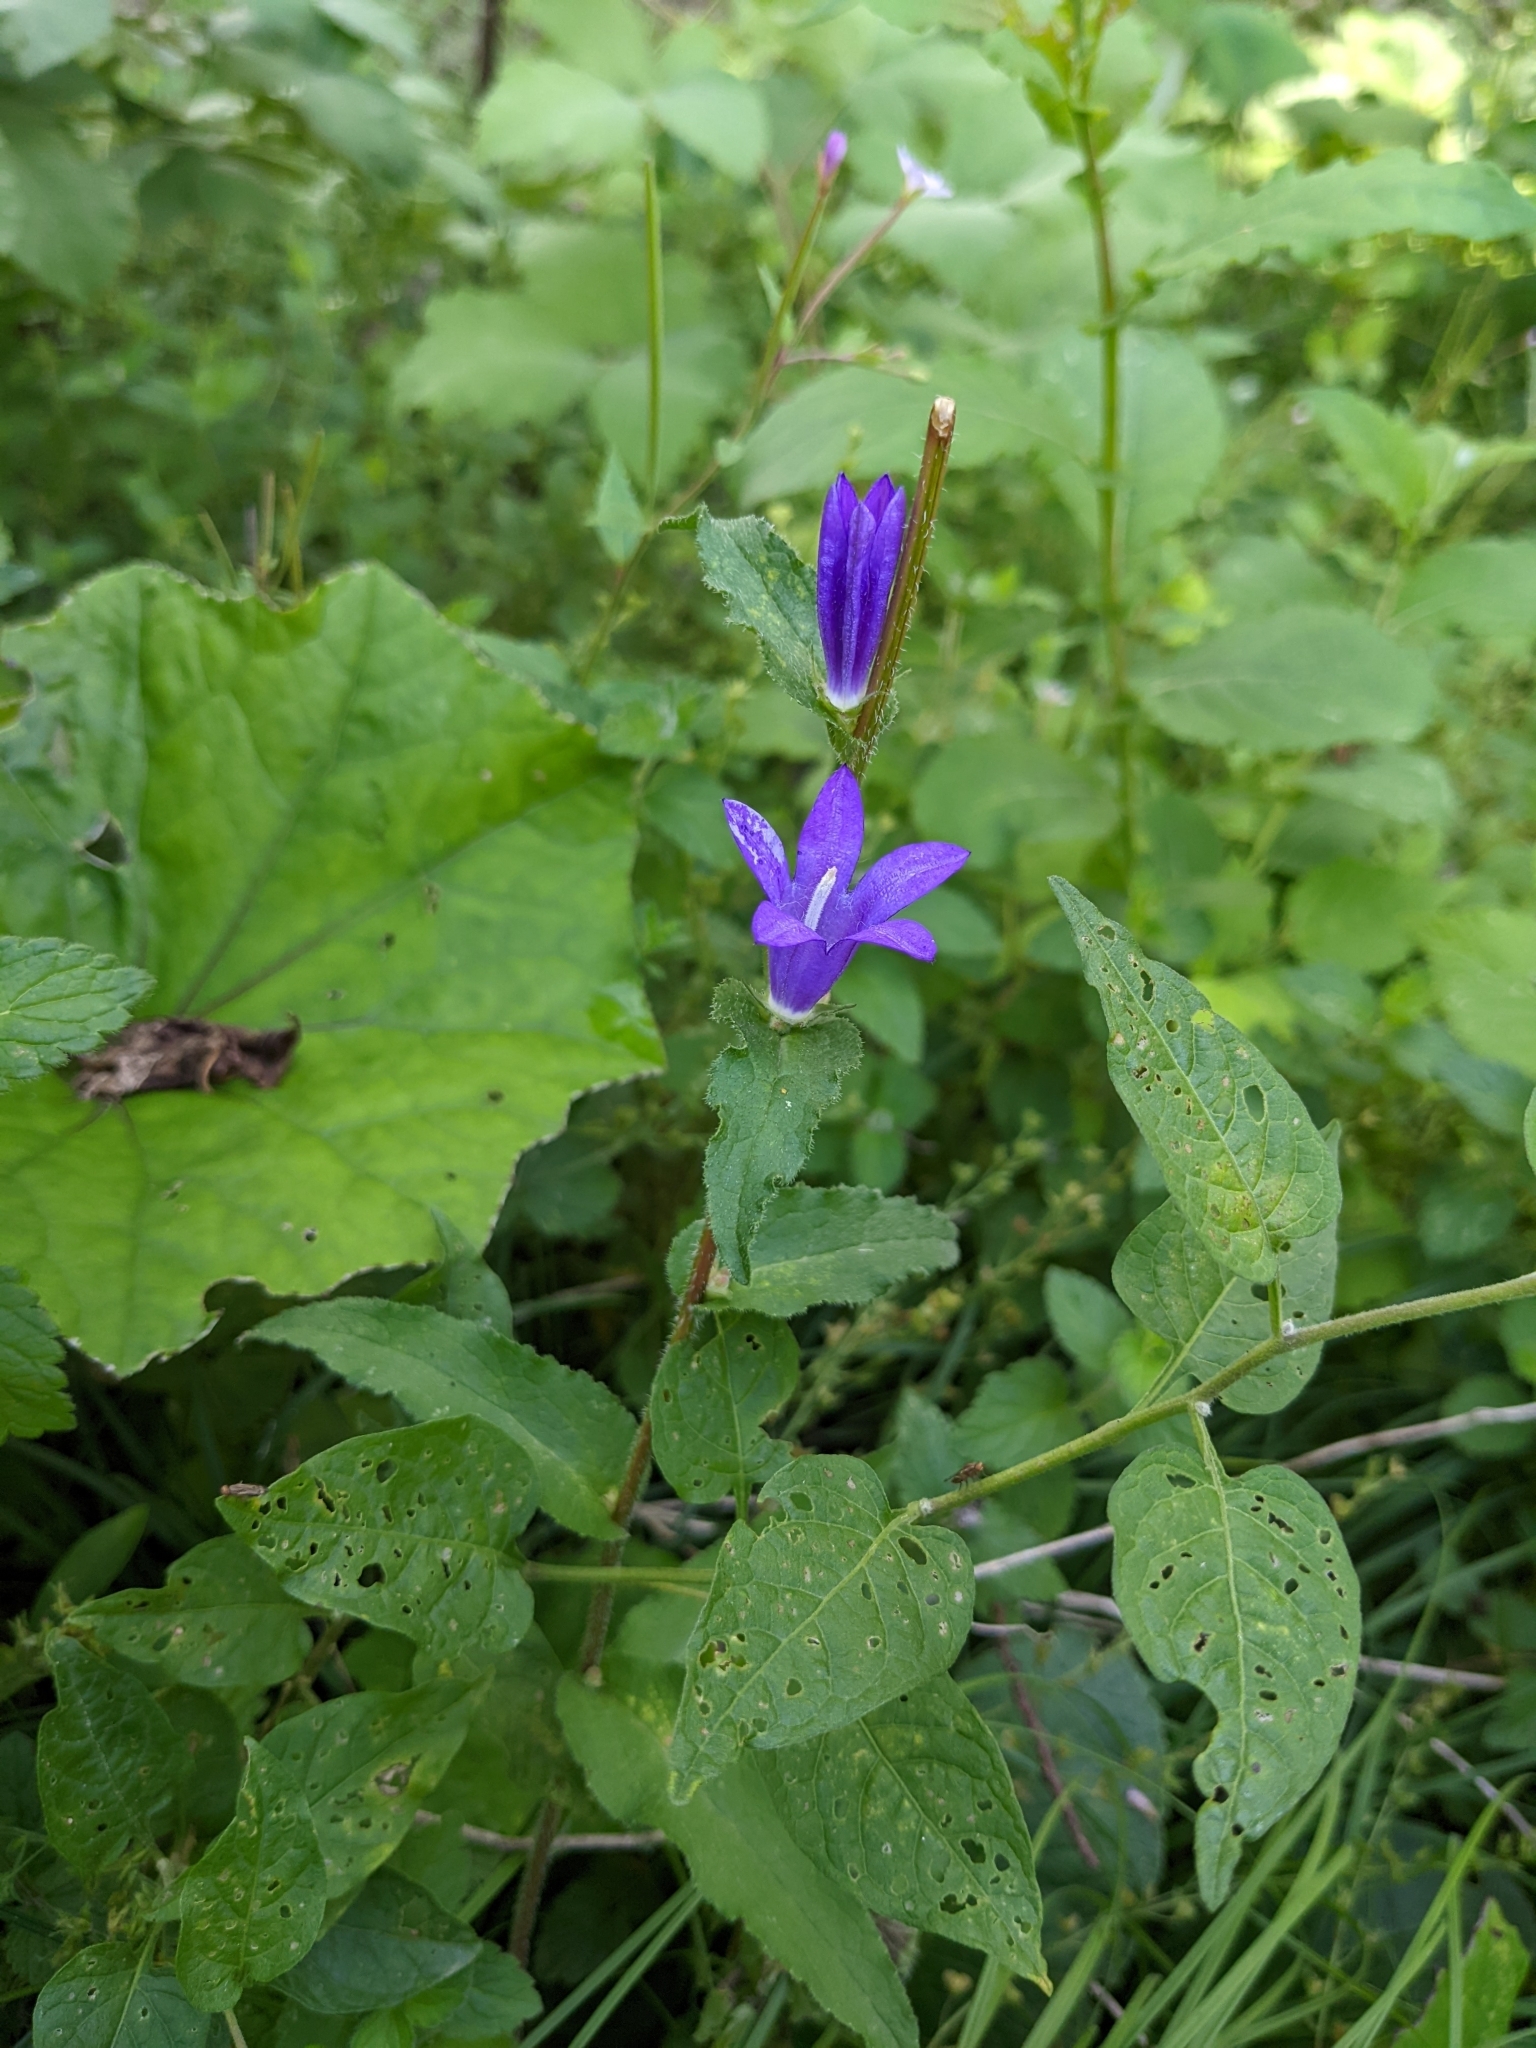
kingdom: Plantae
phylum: Tracheophyta
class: Magnoliopsida
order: Asterales
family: Campanulaceae
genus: Campanula
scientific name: Campanula glomerata
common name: Clustered bellflower
